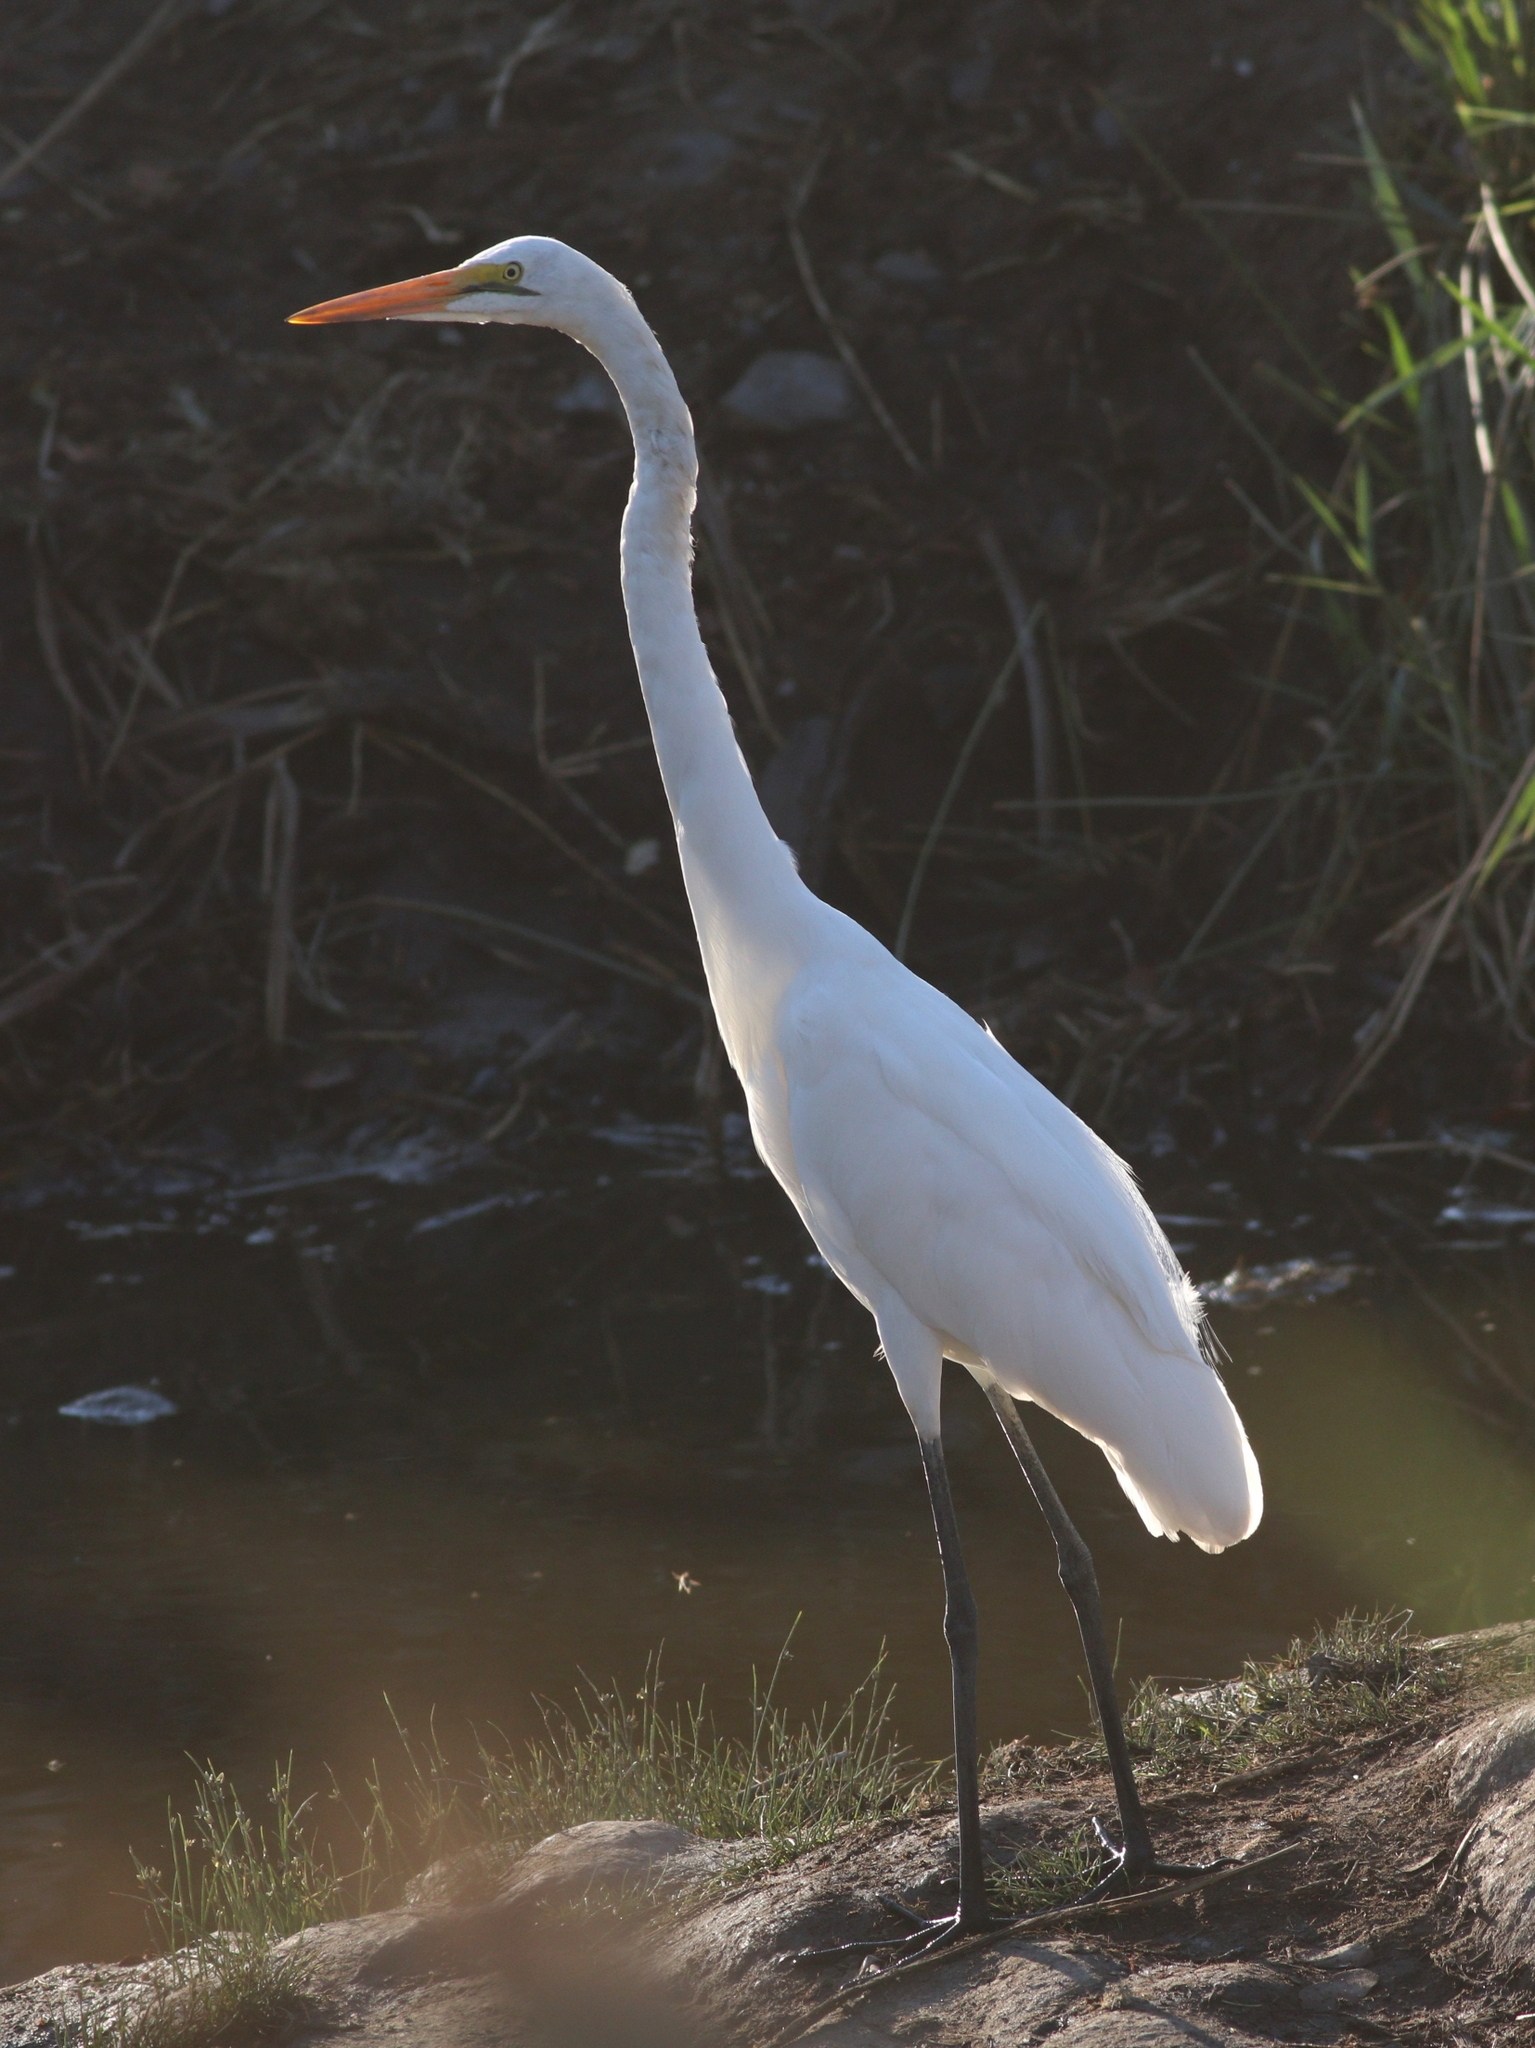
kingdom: Animalia
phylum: Chordata
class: Aves
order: Pelecaniformes
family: Ardeidae
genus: Ardea
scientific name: Ardea alba
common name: Great egret
